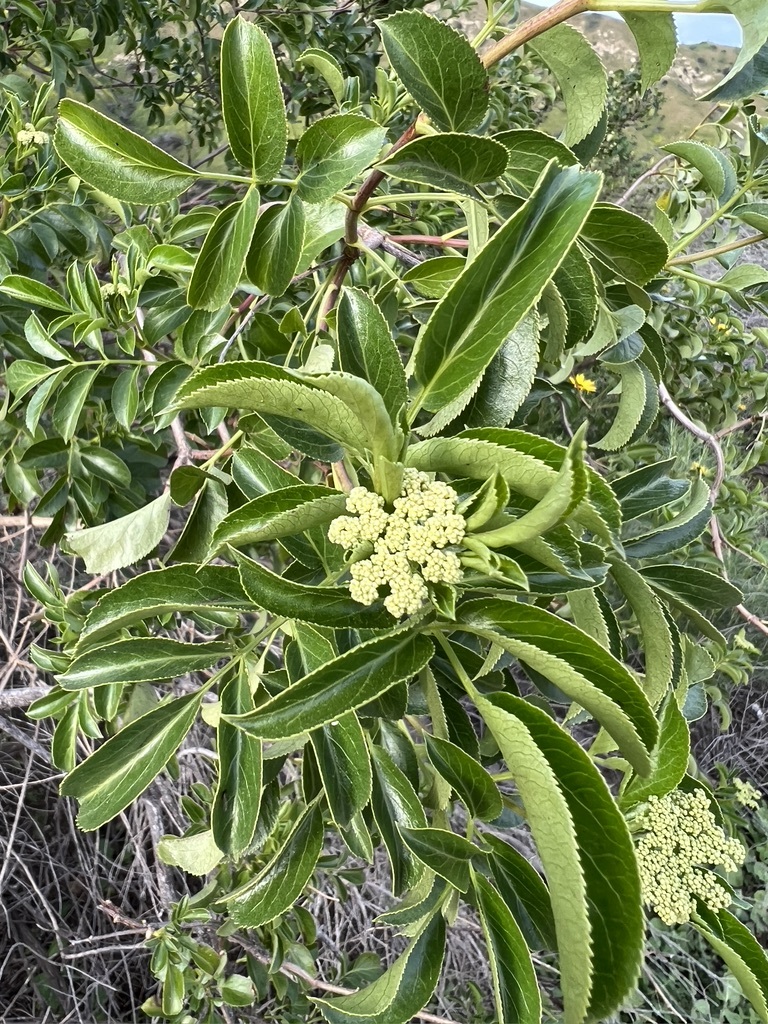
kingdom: Plantae
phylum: Tracheophyta
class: Magnoliopsida
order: Dipsacales
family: Viburnaceae
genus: Sambucus
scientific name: Sambucus cerulea
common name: Blue elder
